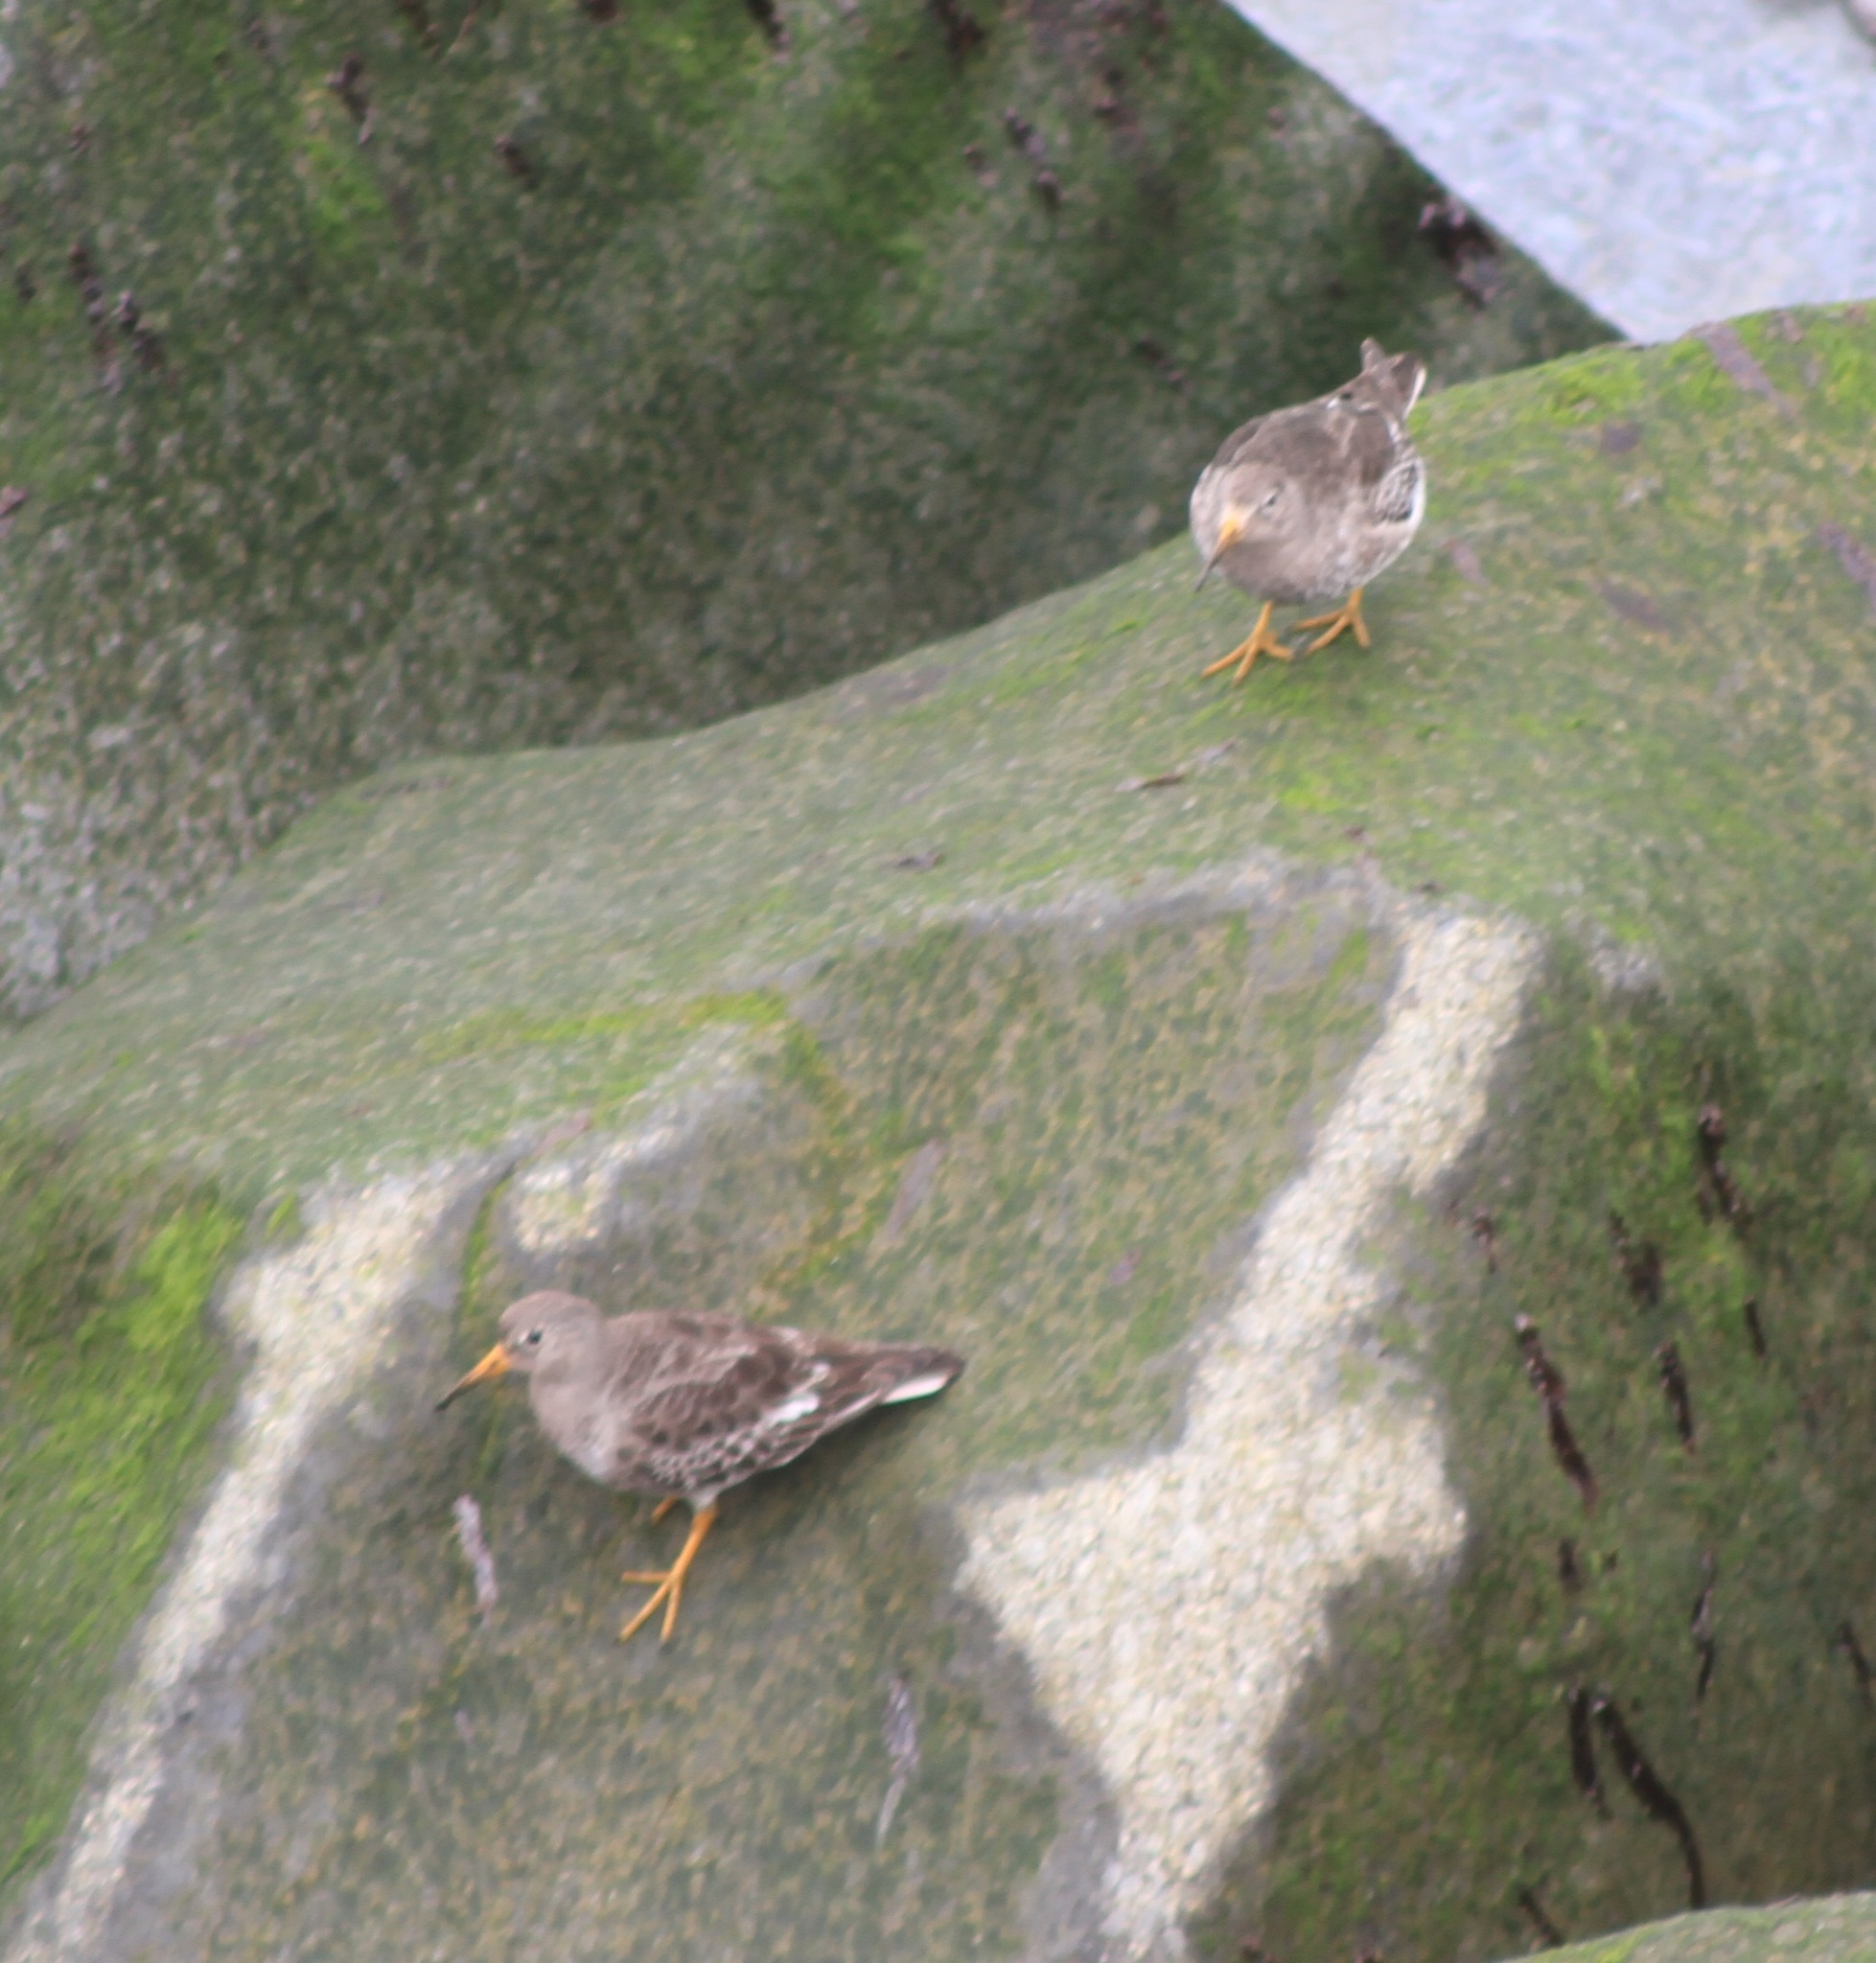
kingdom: Animalia
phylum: Chordata
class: Aves
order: Charadriiformes
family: Scolopacidae
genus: Calidris
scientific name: Calidris maritima
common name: Purple sandpiper
